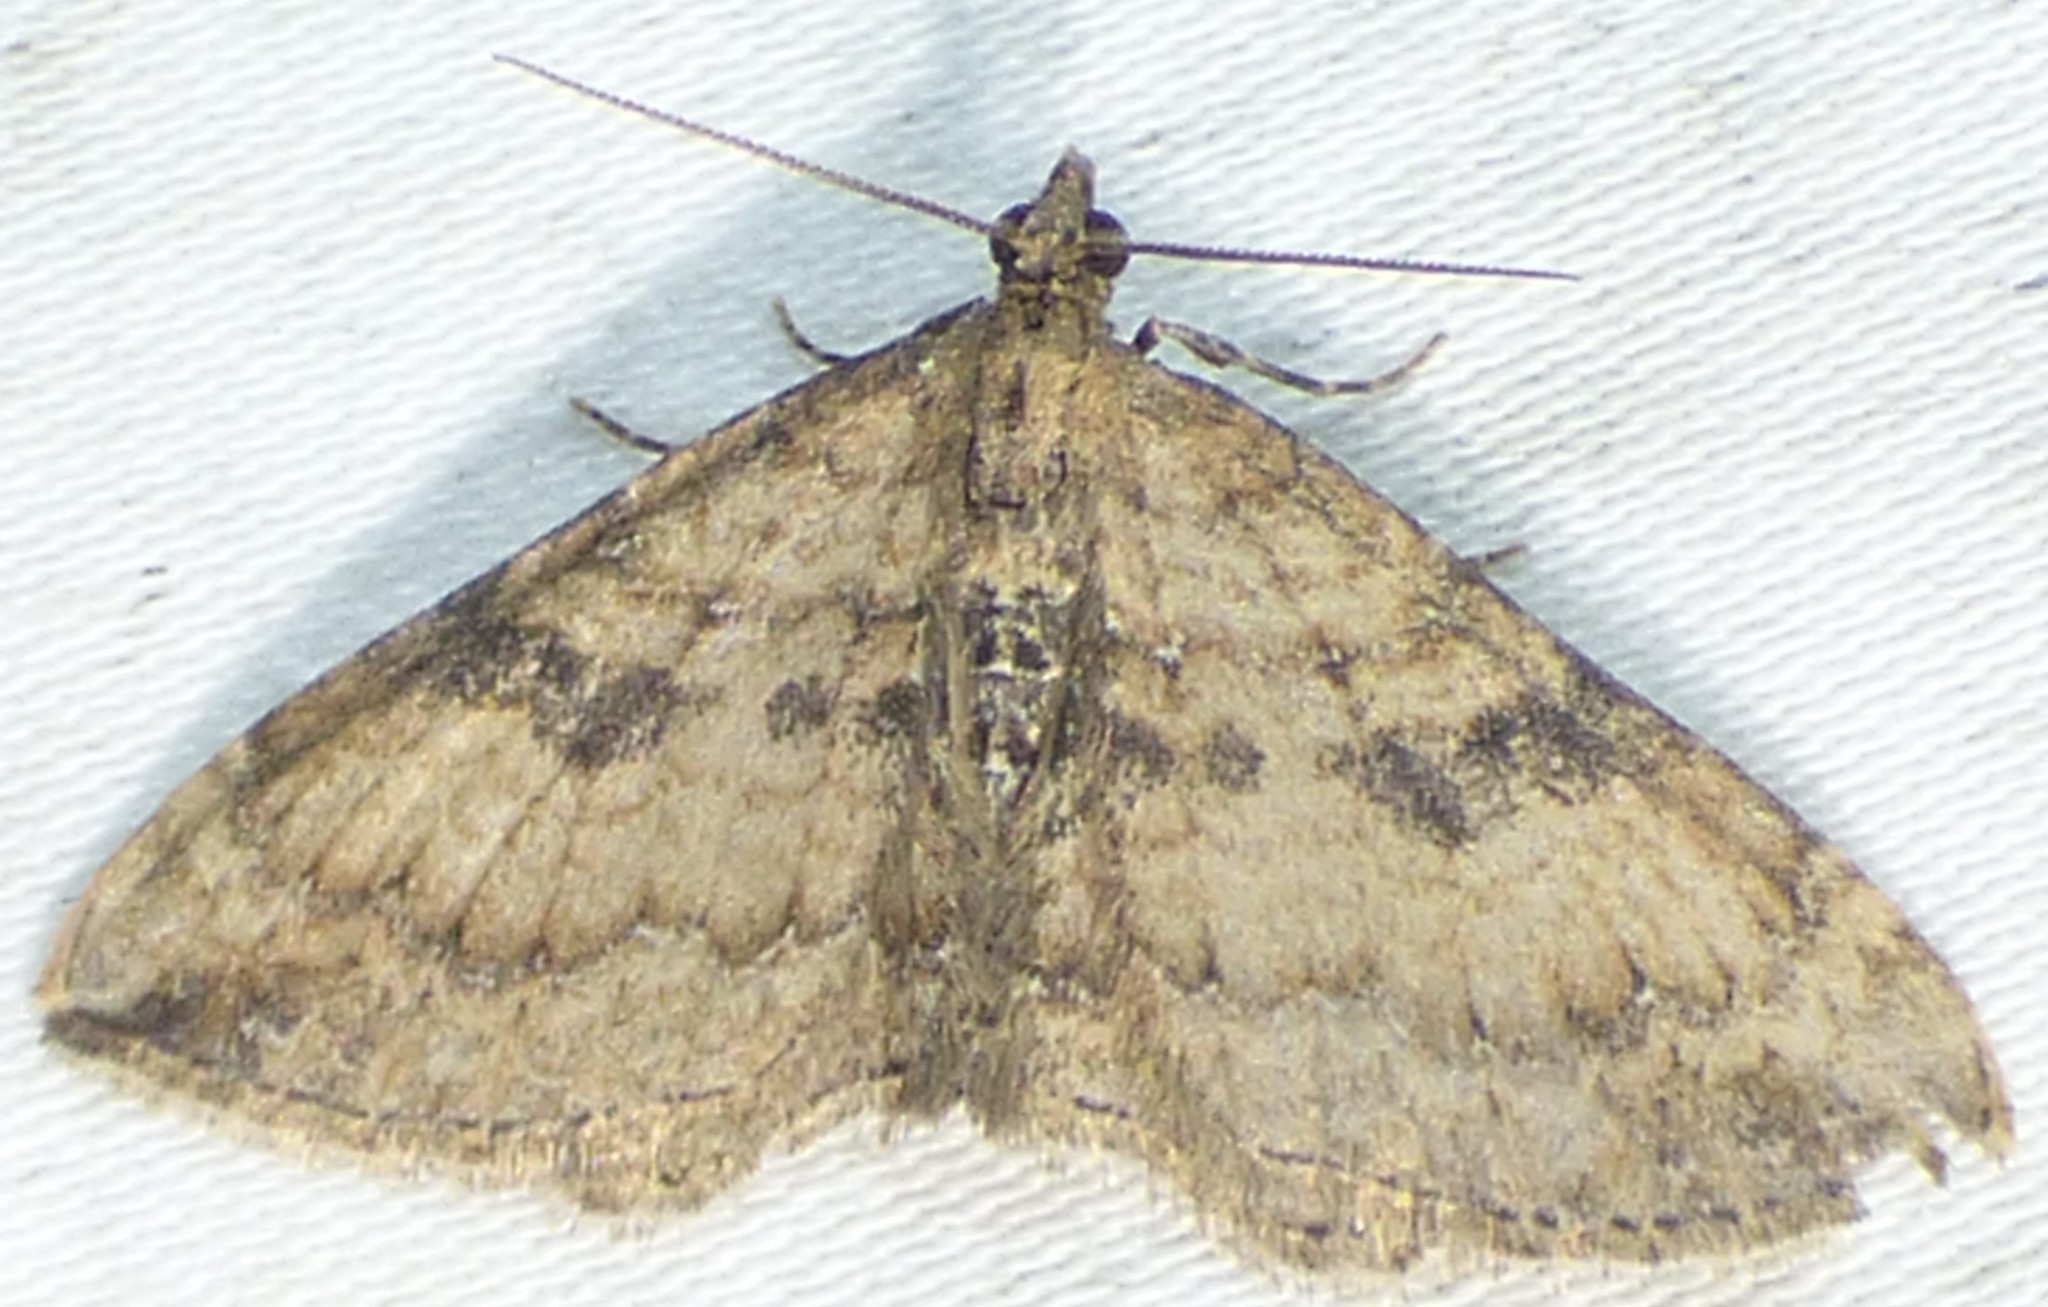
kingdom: Animalia
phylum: Arthropoda
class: Insecta
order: Lepidoptera
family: Geometridae
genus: Orthonama
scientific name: Orthonama obstipata
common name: The gem
